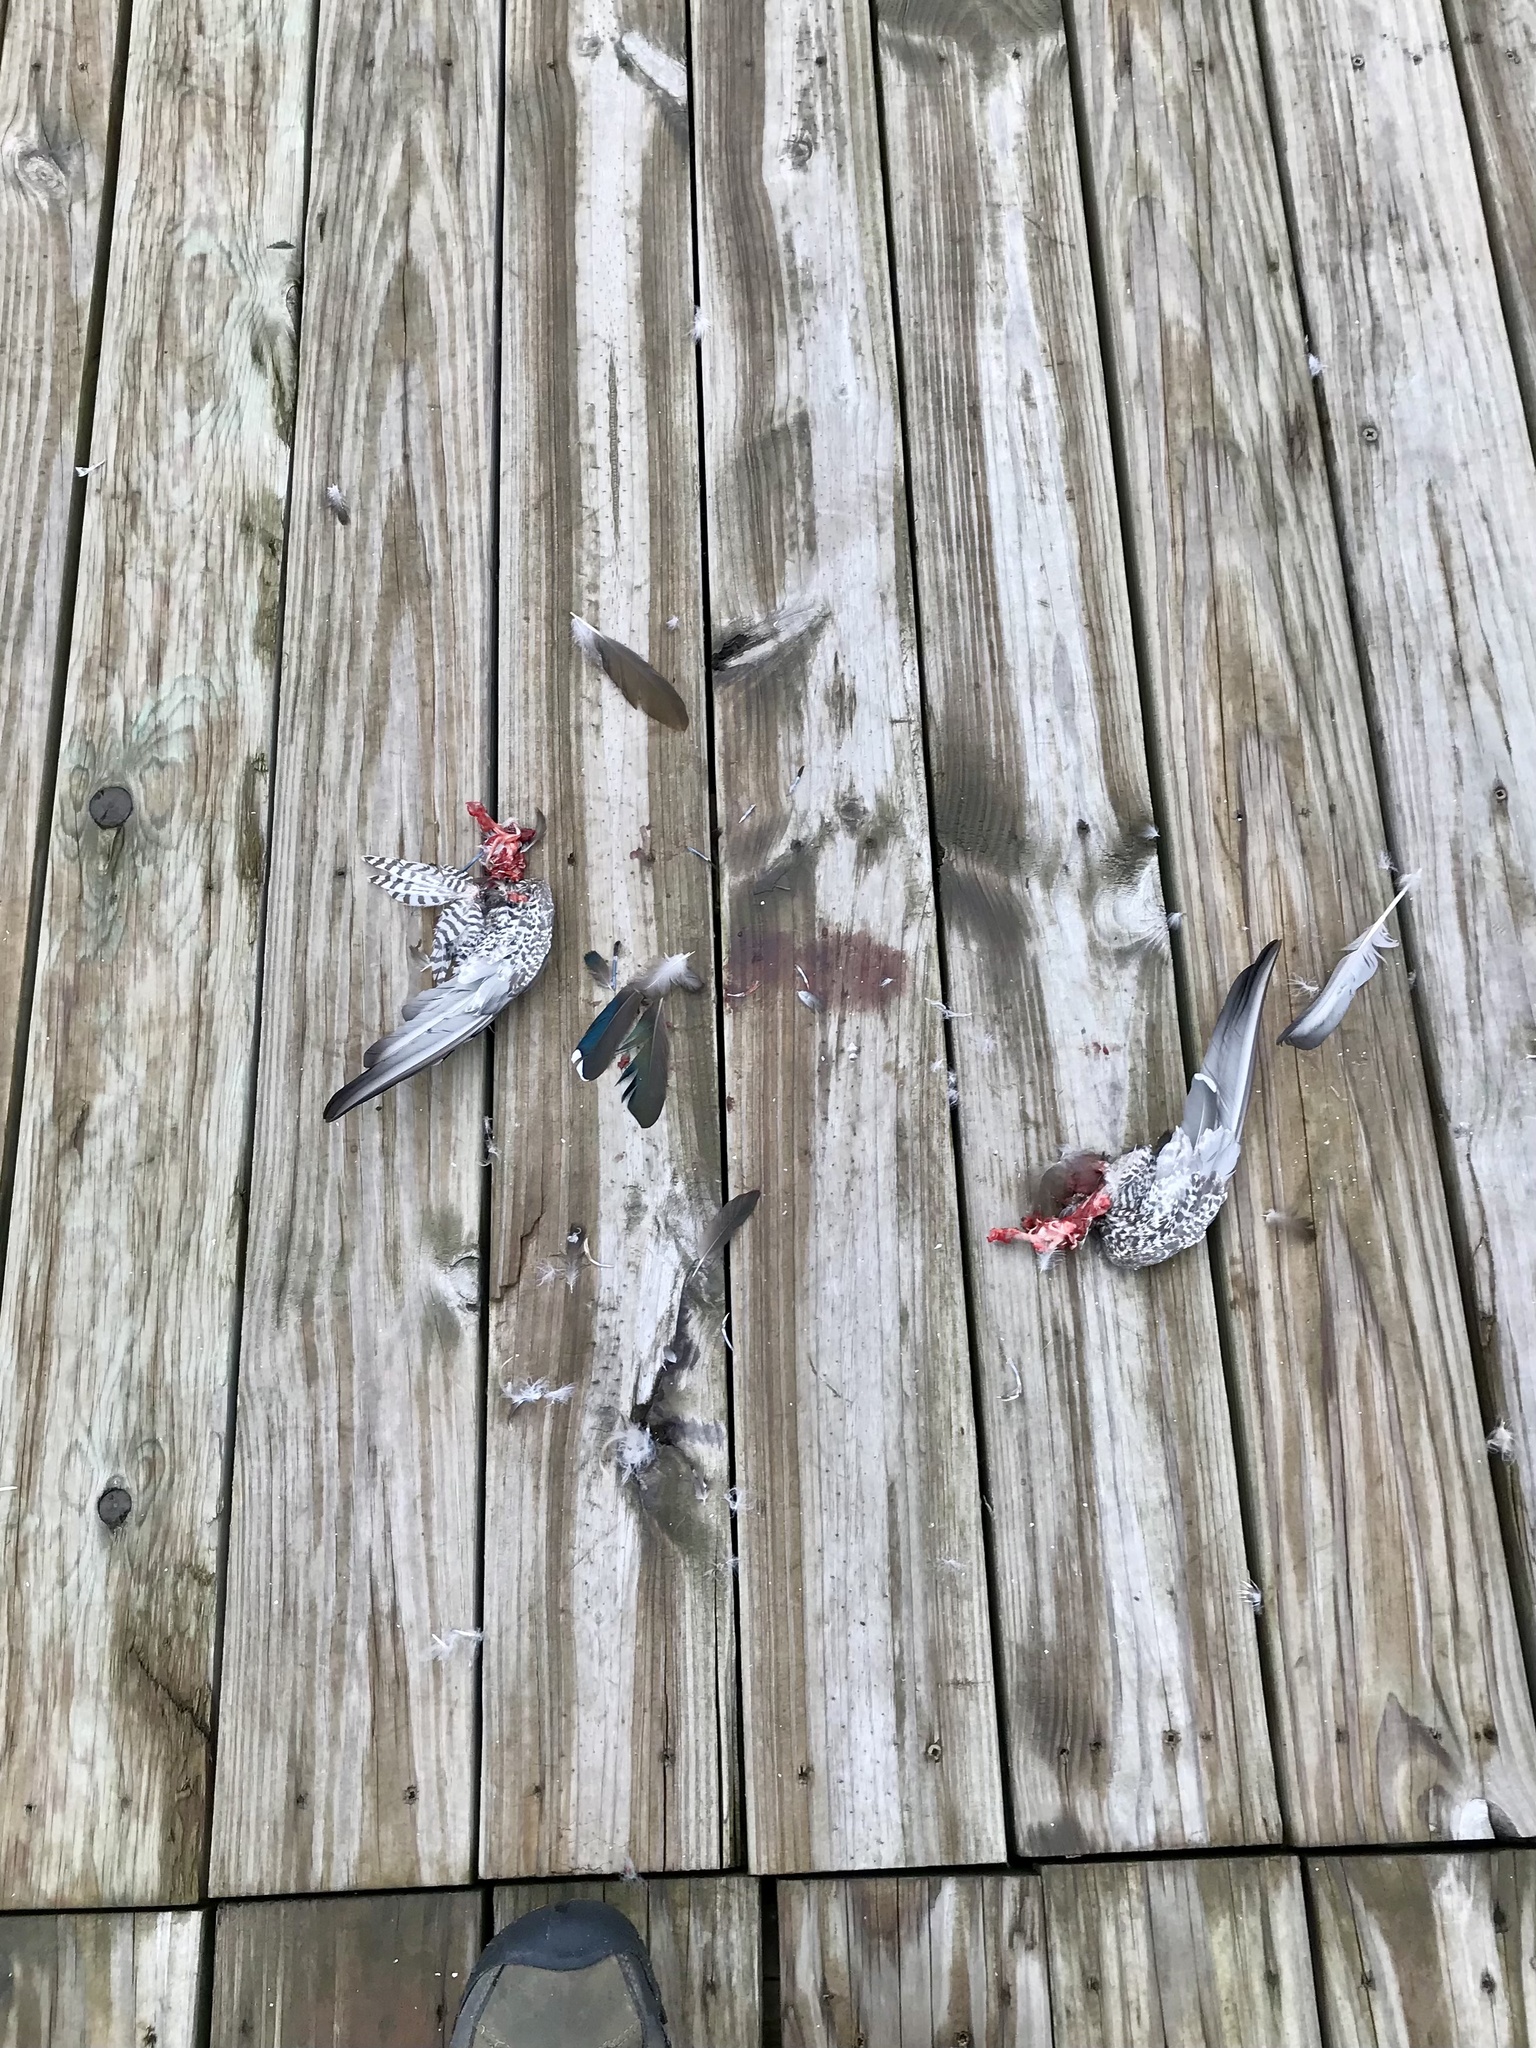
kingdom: Animalia
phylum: Chordata
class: Aves
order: Anseriformes
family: Anatidae
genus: Aix
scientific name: Aix sponsa
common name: Wood duck
